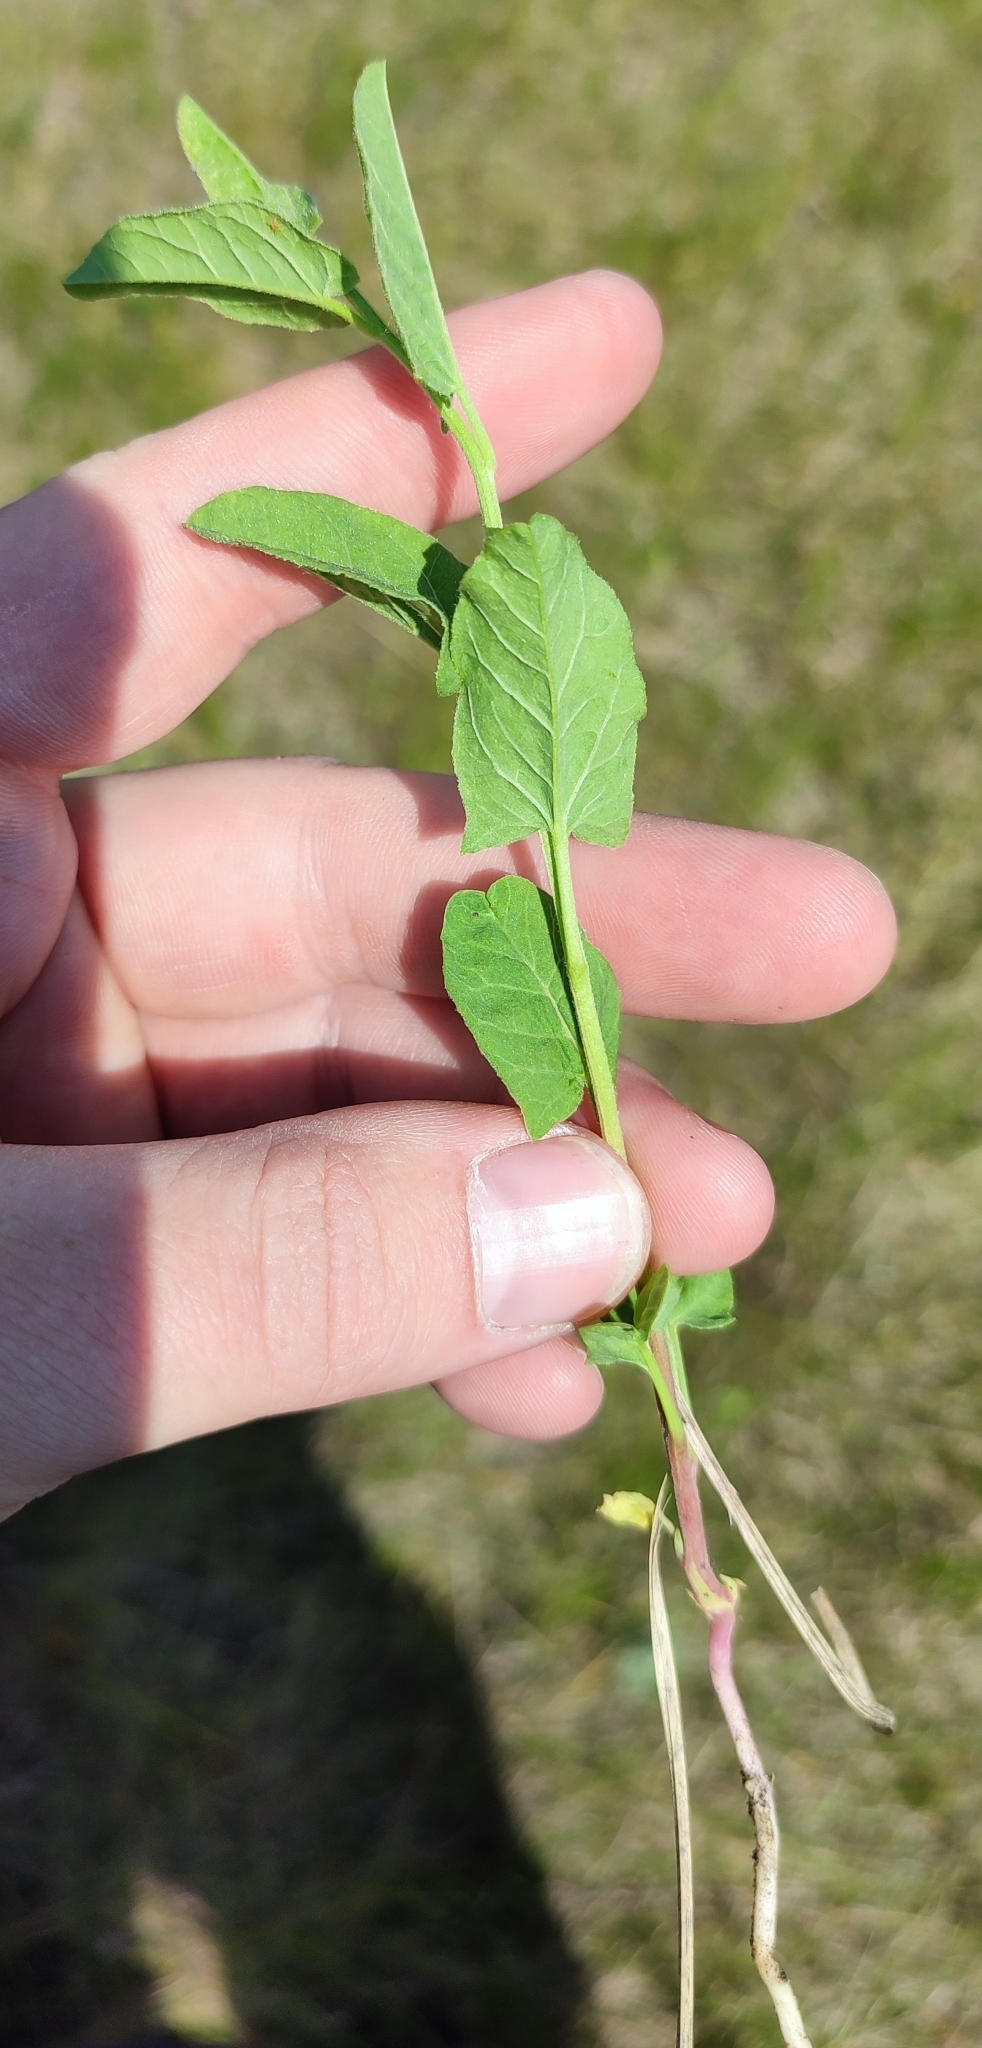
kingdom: Plantae
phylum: Tracheophyta
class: Magnoliopsida
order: Solanales
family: Convolvulaceae
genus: Convolvulus
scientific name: Convolvulus arvensis
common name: Field bindweed
